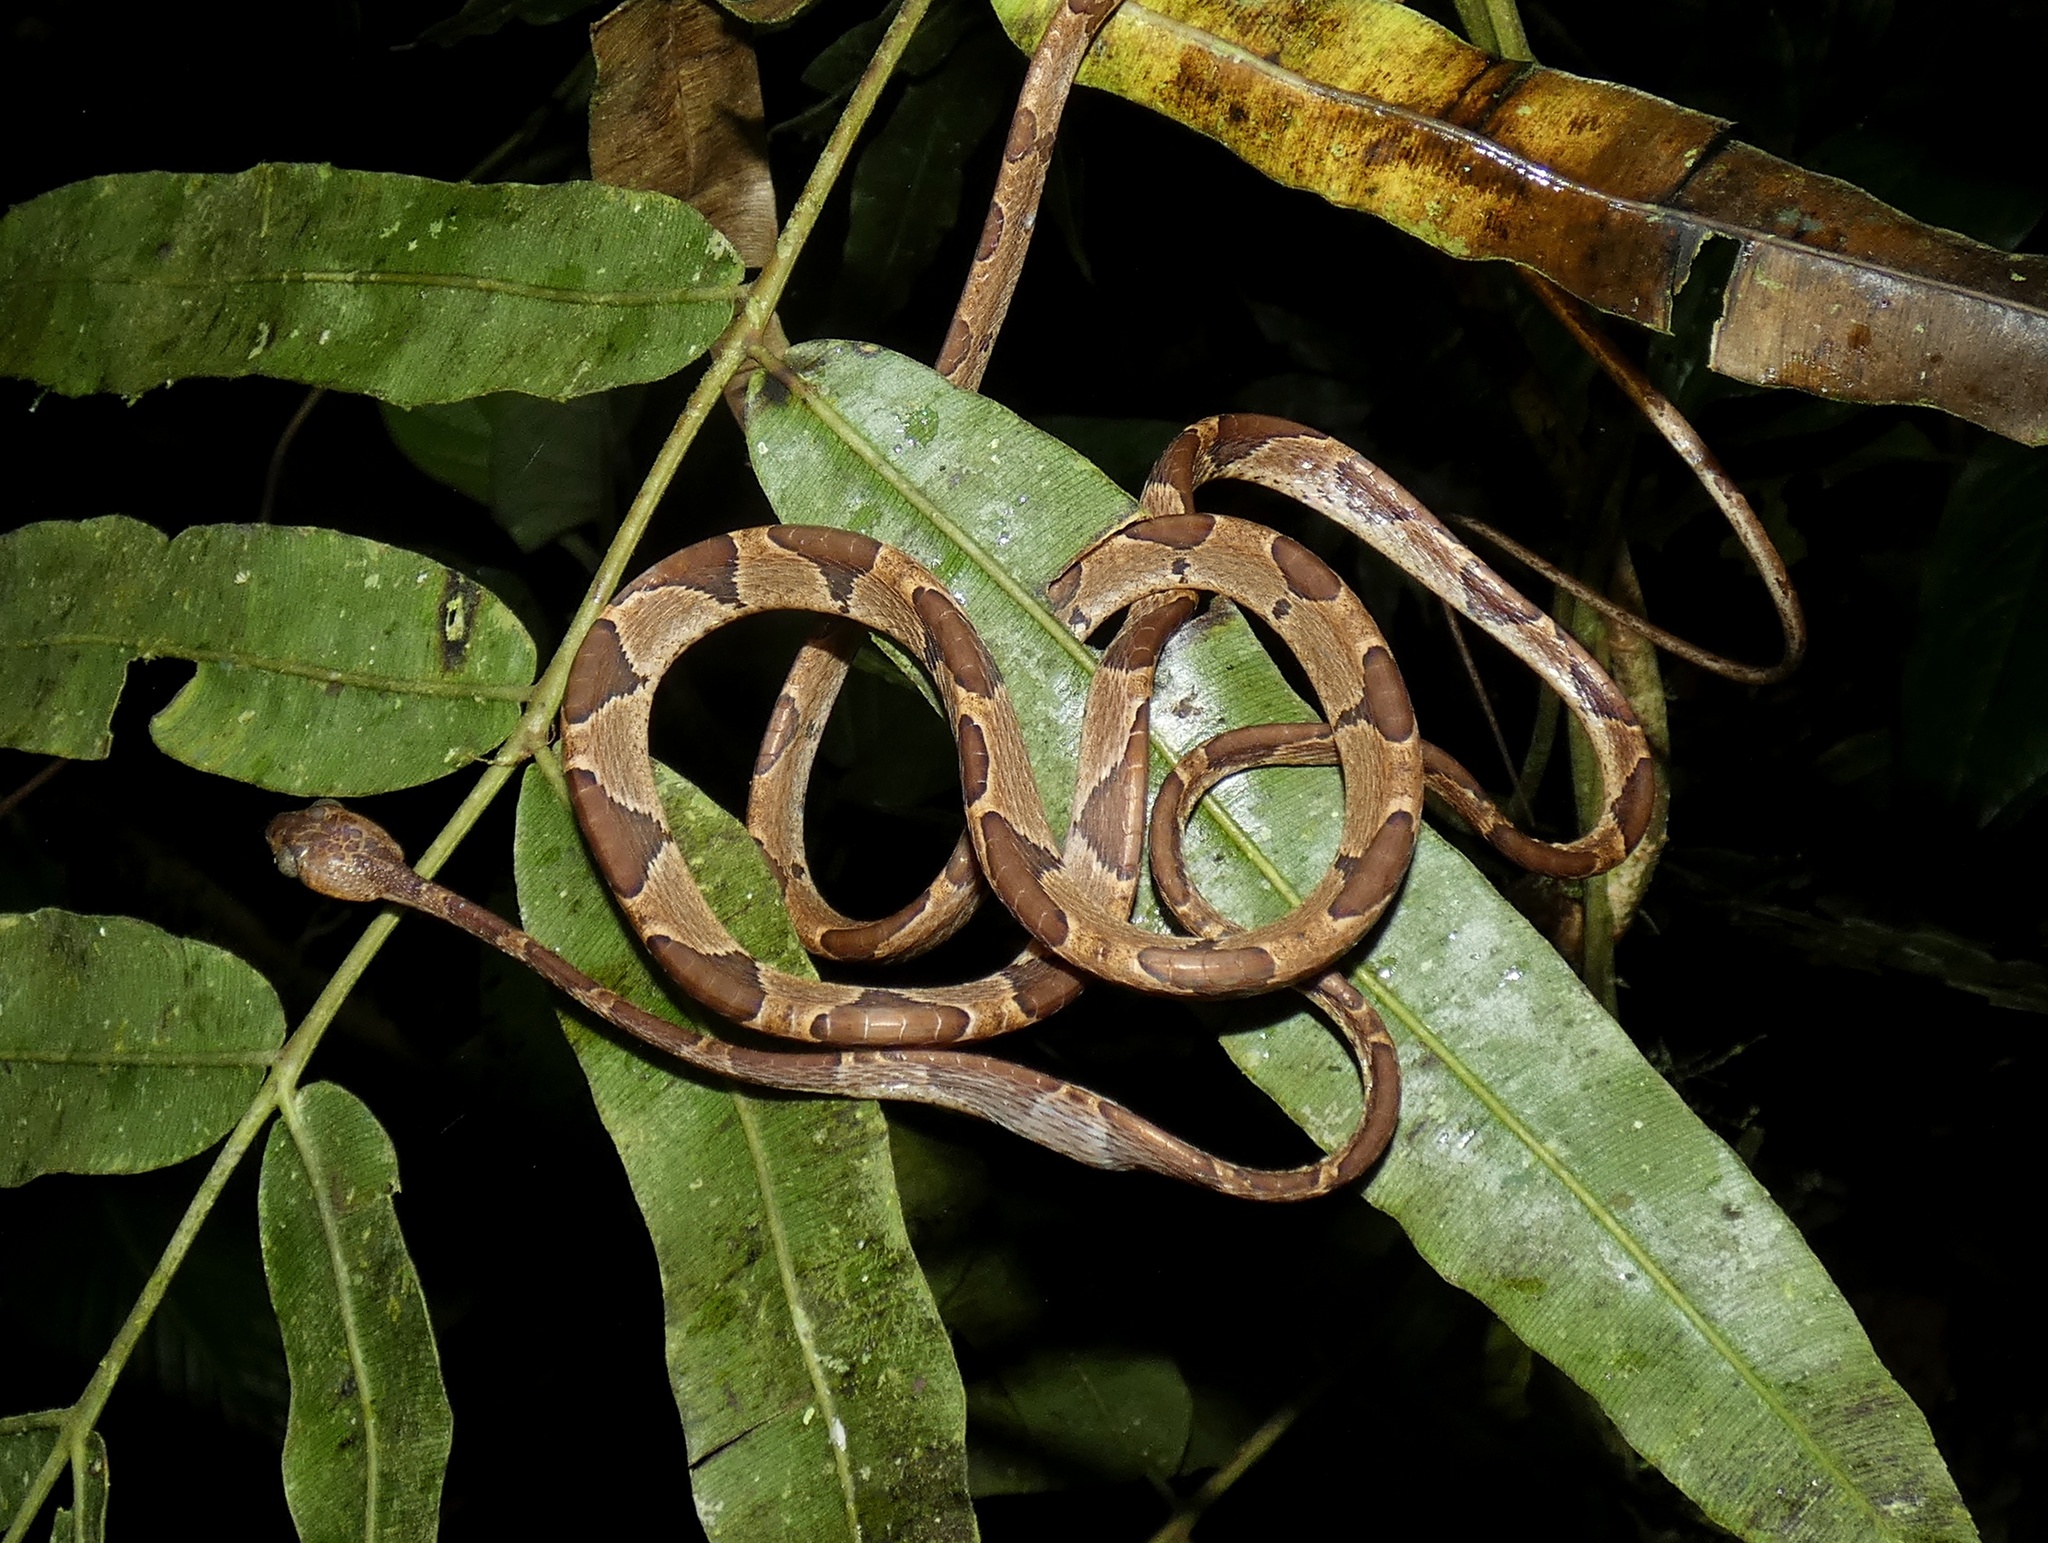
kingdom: Animalia
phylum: Chordata
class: Squamata
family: Colubridae
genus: Imantodes
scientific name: Imantodes cenchoa
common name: Blunthead tree snake
